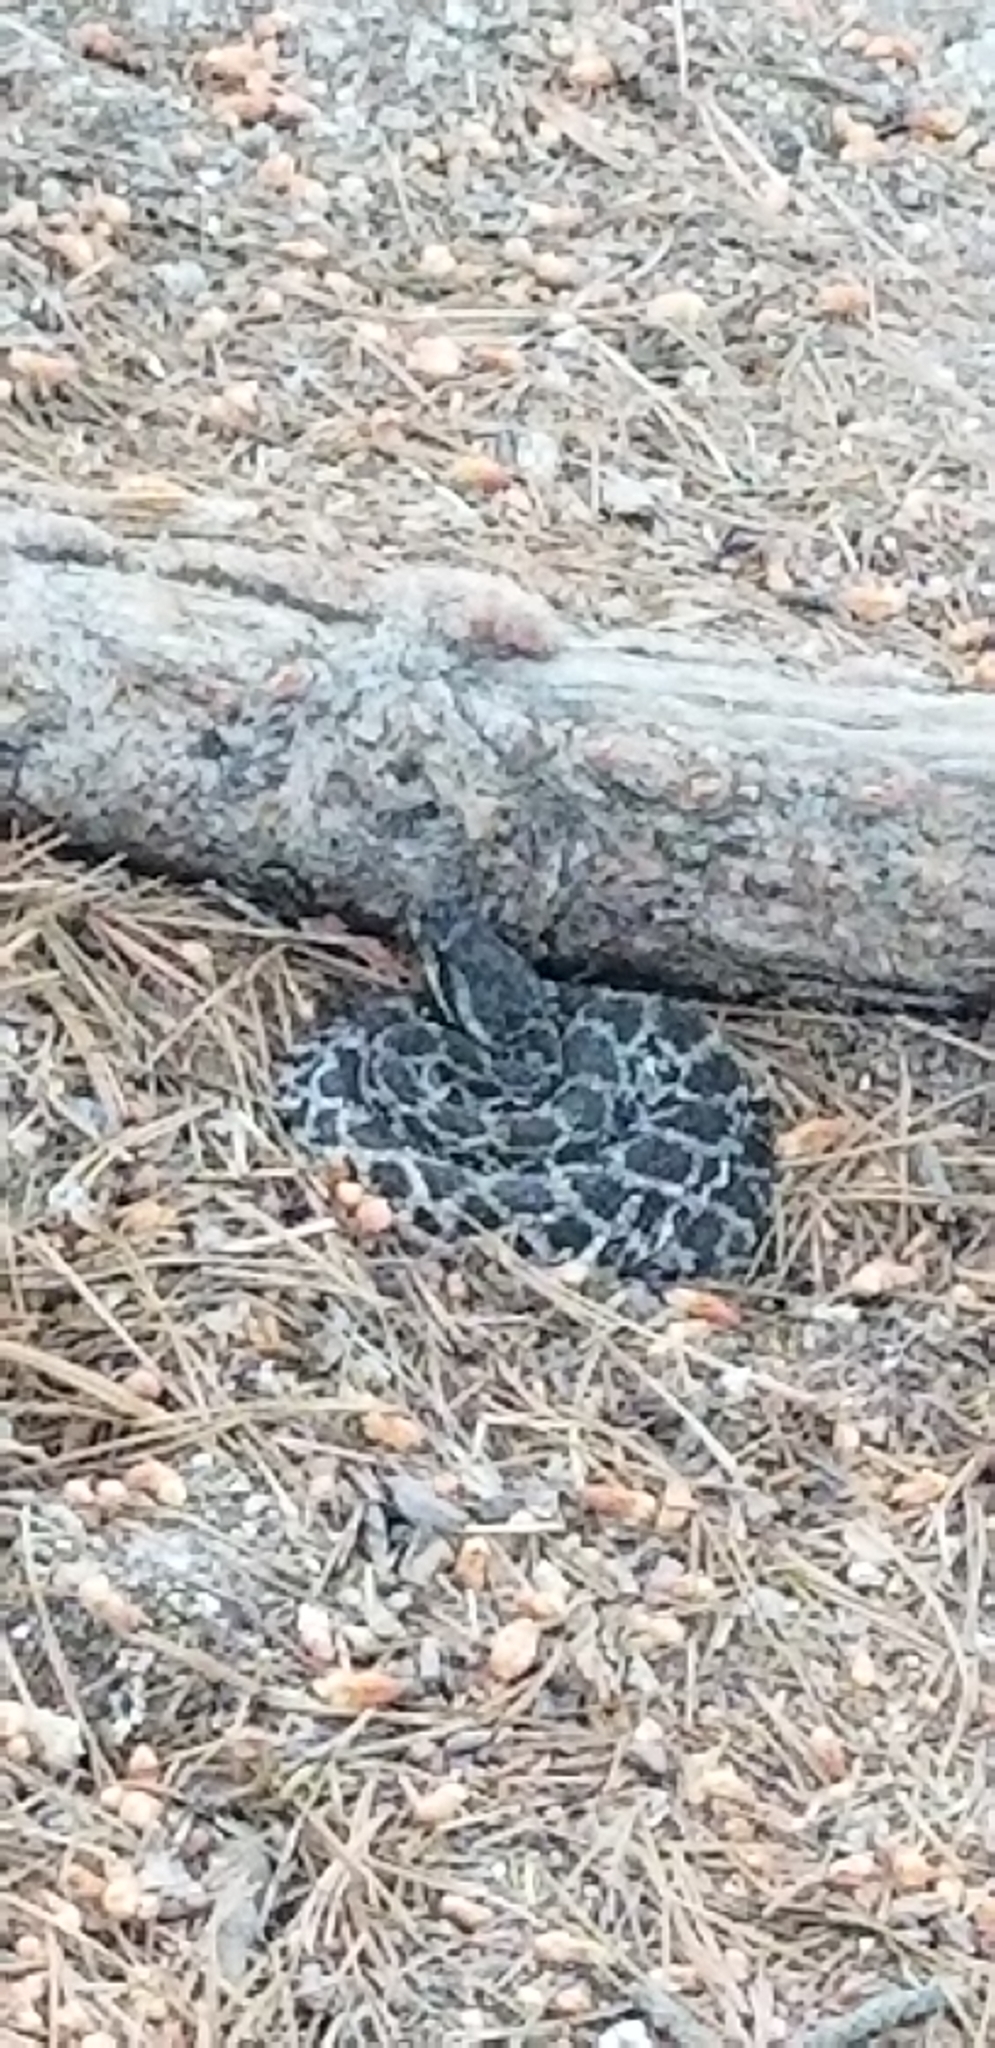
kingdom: Animalia
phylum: Chordata
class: Squamata
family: Viperidae
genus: Crotalus
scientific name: Crotalus oreganus
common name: Abyssus
